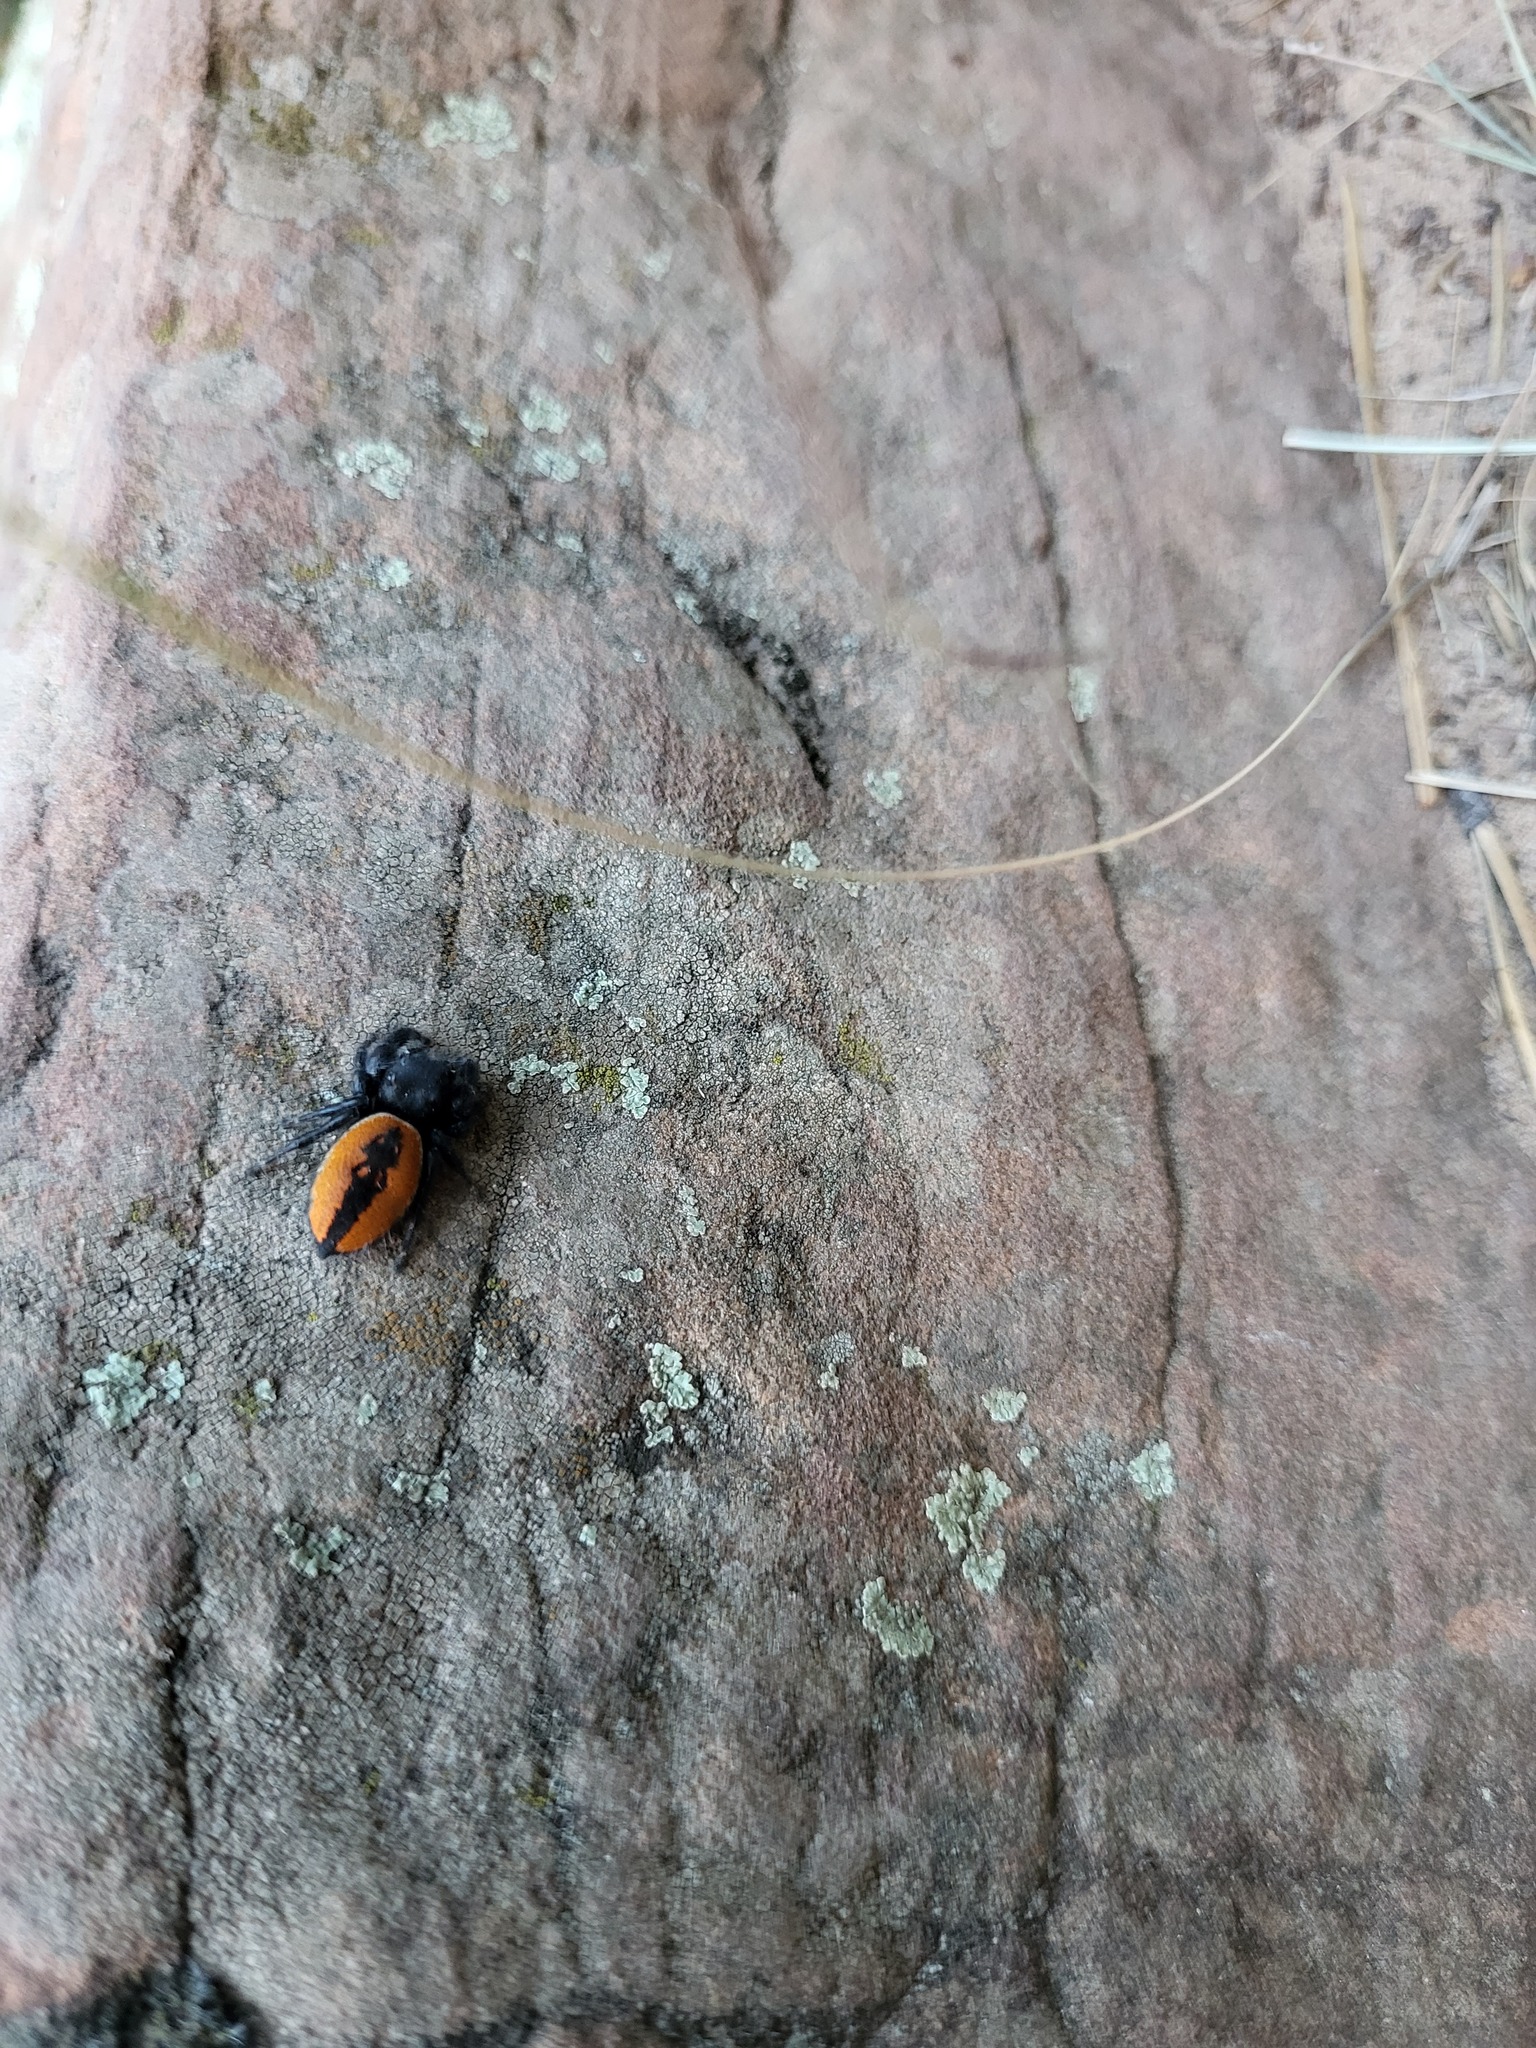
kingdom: Animalia
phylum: Arthropoda
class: Arachnida
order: Araneae
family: Salticidae
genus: Phidippus
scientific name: Phidippus carneus
